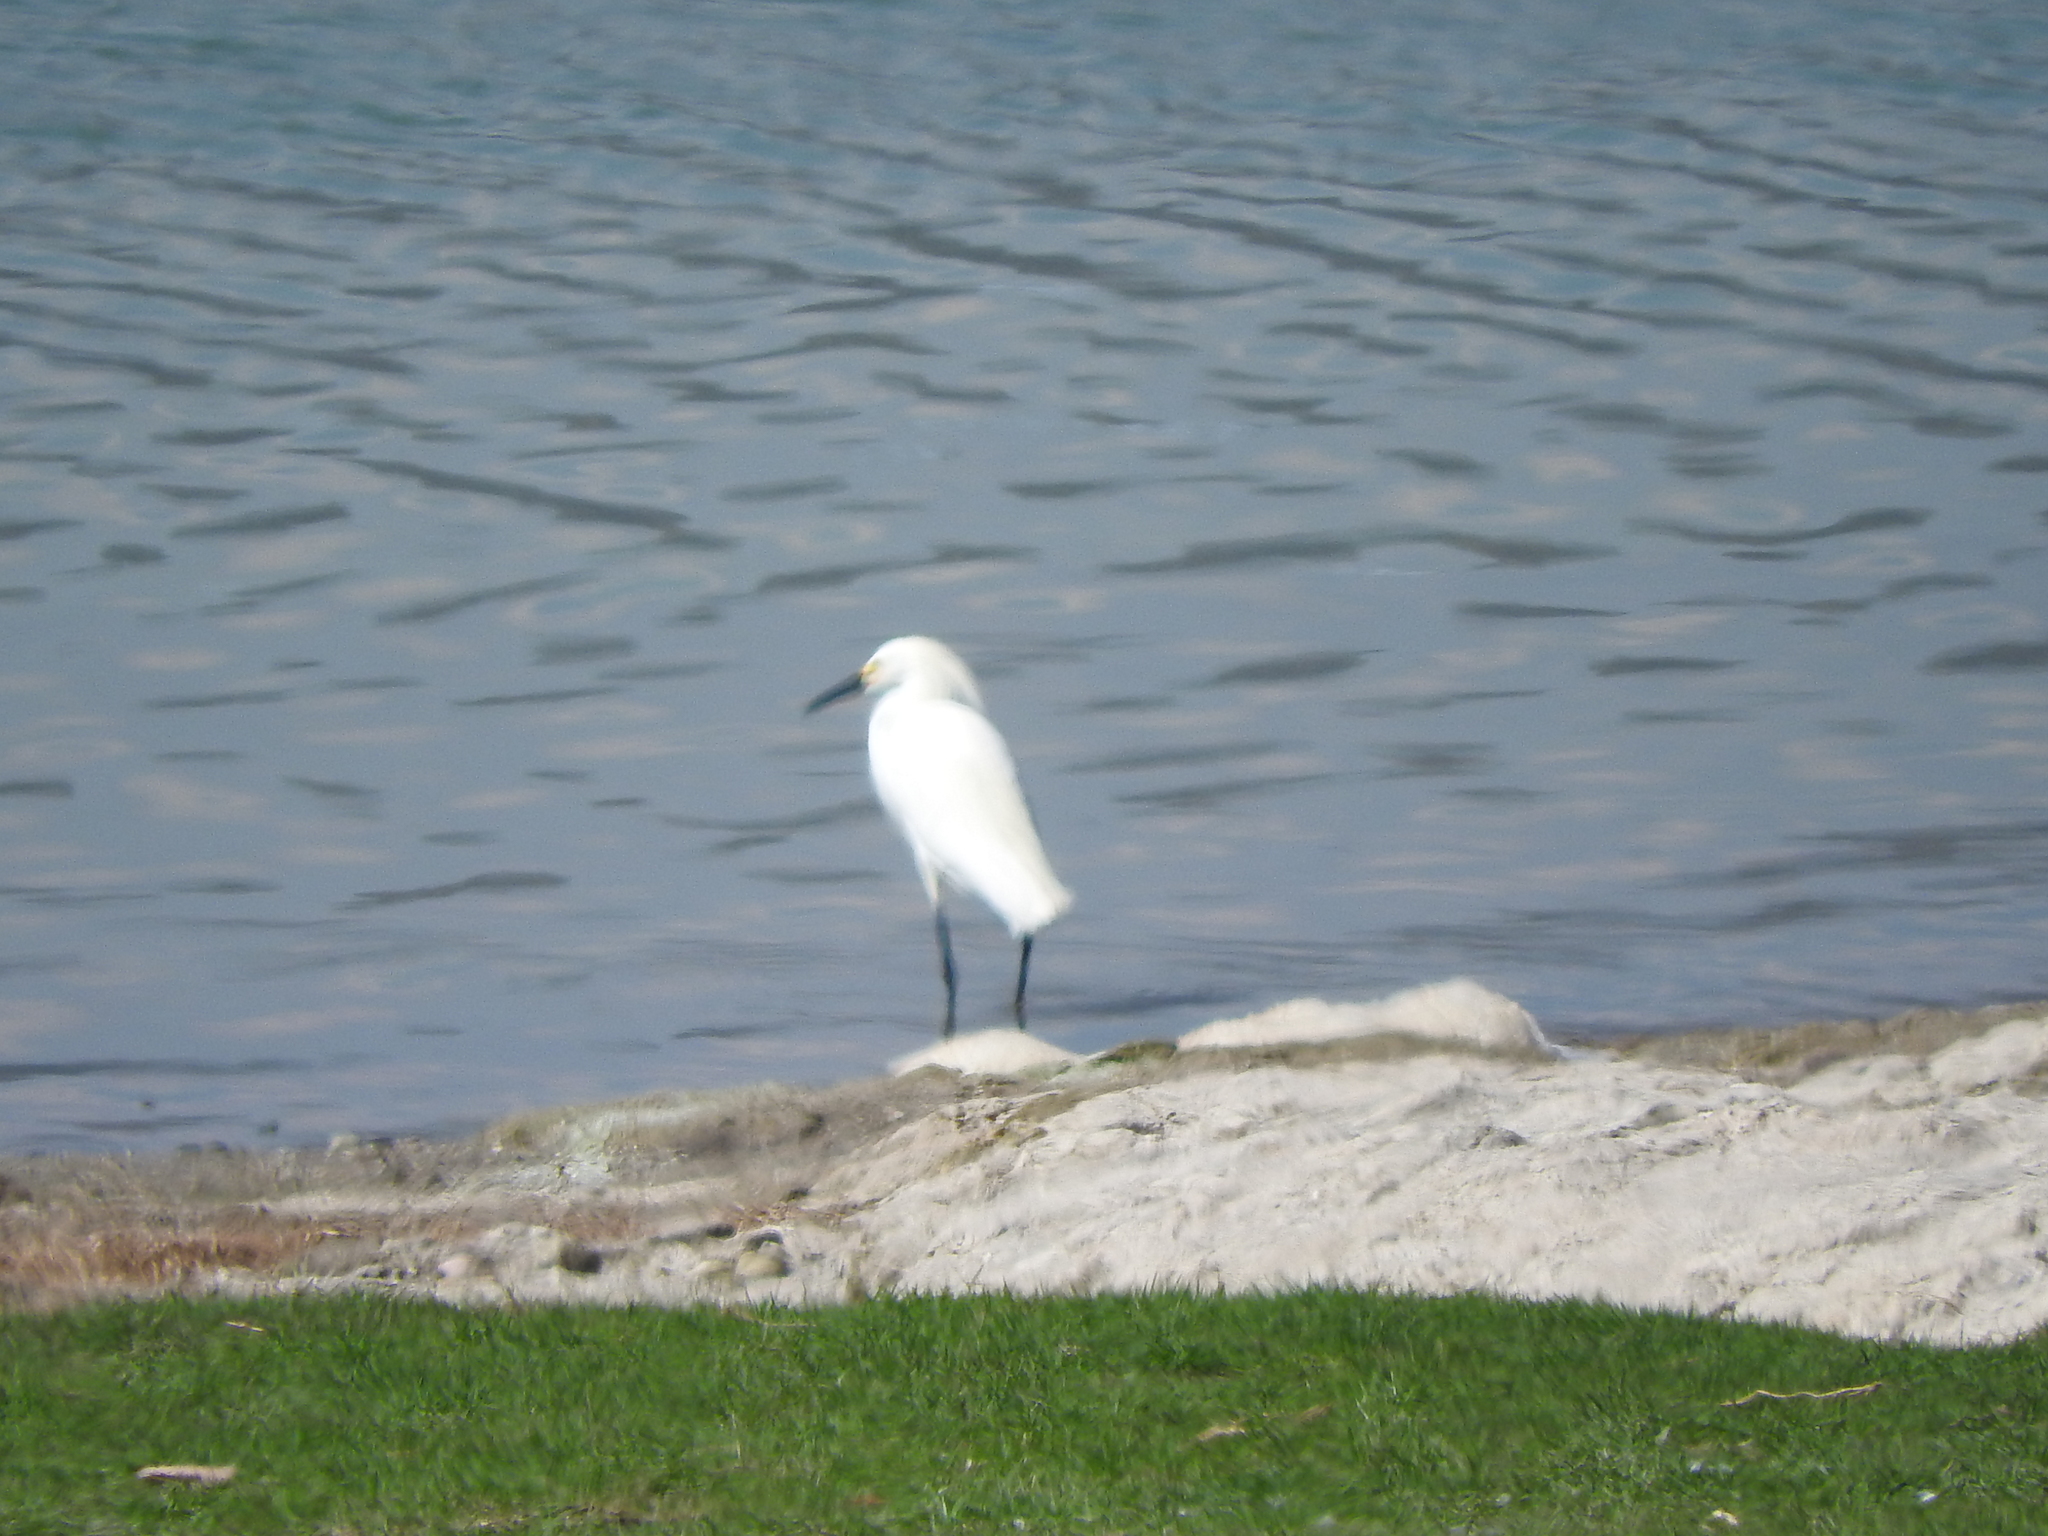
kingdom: Animalia
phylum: Chordata
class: Aves
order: Pelecaniformes
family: Ardeidae
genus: Egretta
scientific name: Egretta thula
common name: Snowy egret
